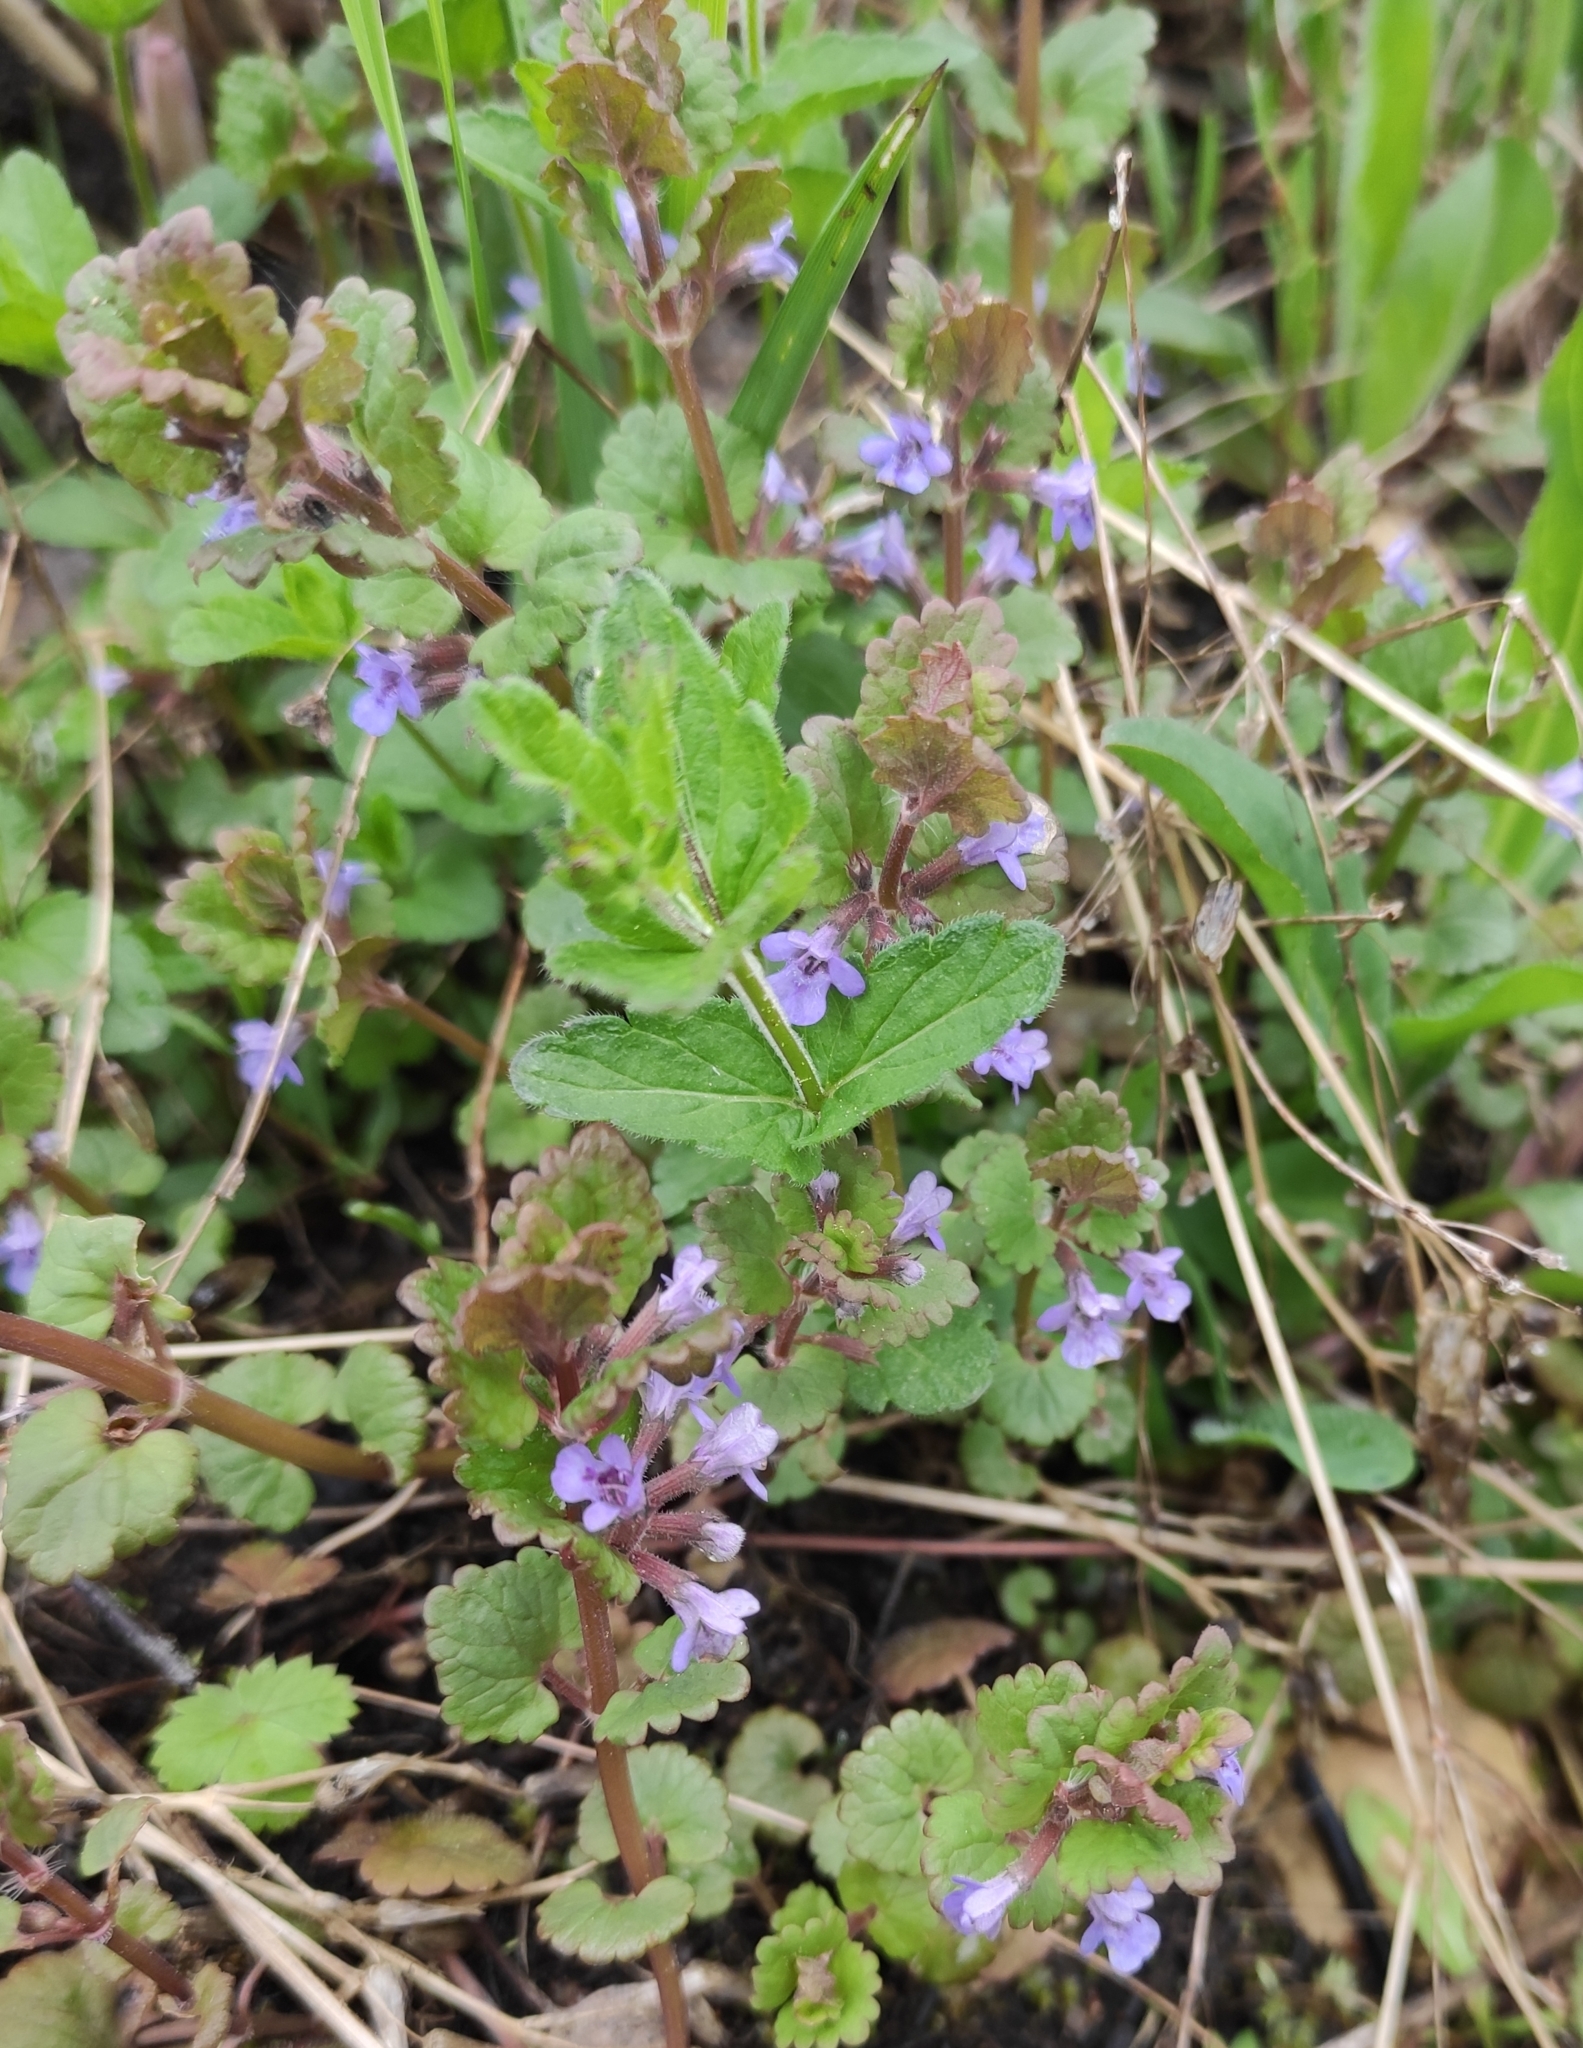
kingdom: Plantae
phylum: Tracheophyta
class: Magnoliopsida
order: Lamiales
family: Lamiaceae
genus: Glechoma
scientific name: Glechoma hederacea
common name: Ground ivy
